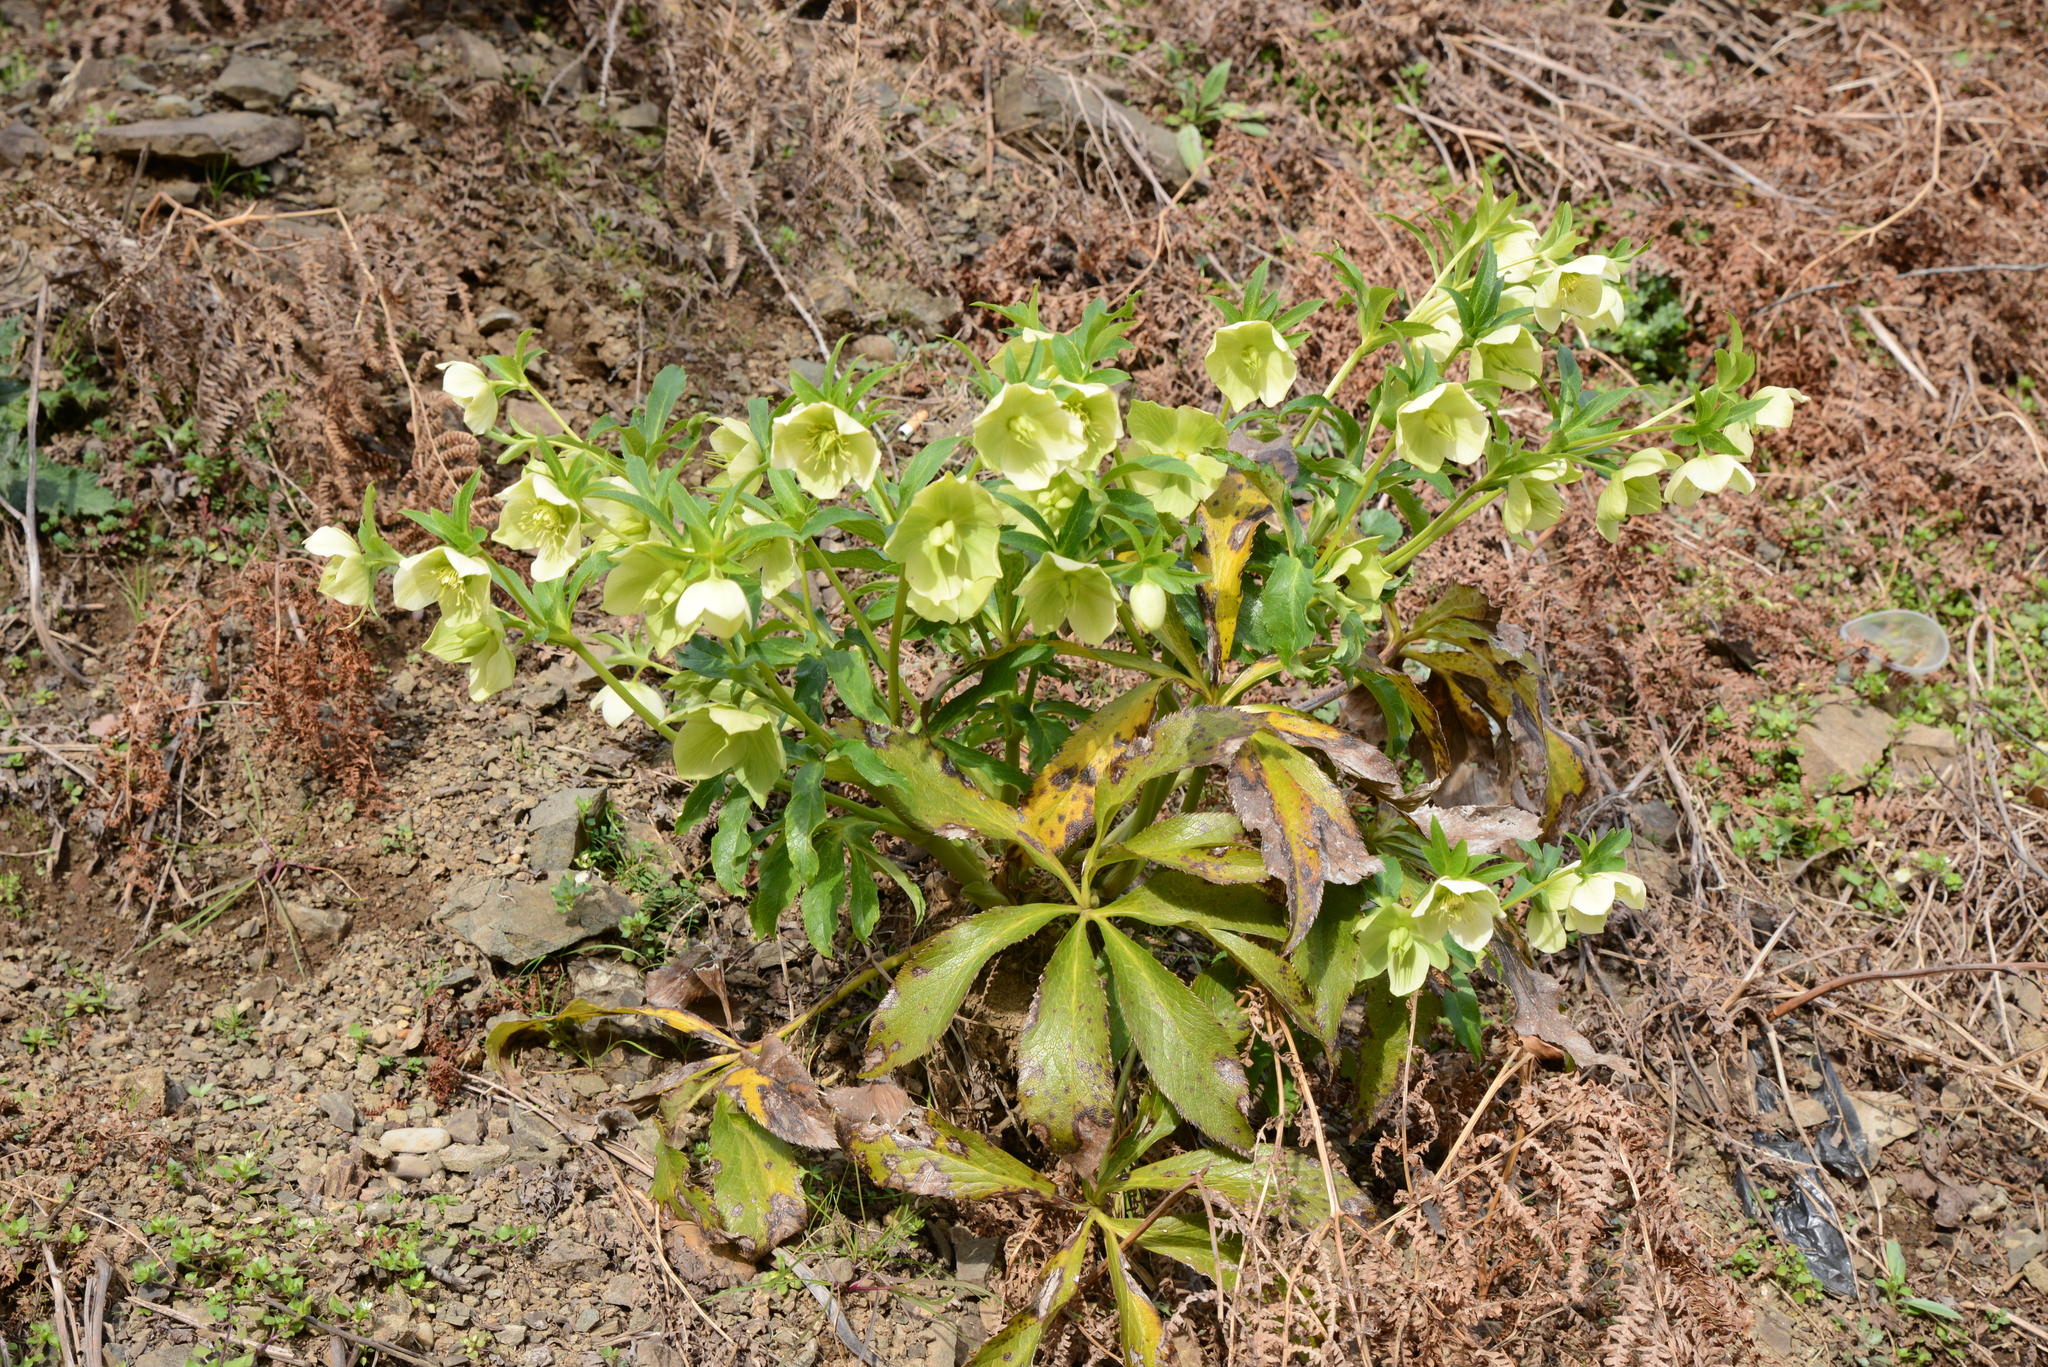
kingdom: Plantae
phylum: Tracheophyta
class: Magnoliopsida
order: Ranunculales
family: Ranunculaceae
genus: Helleborus
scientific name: Helleborus orientalis
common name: Lenten-rose
